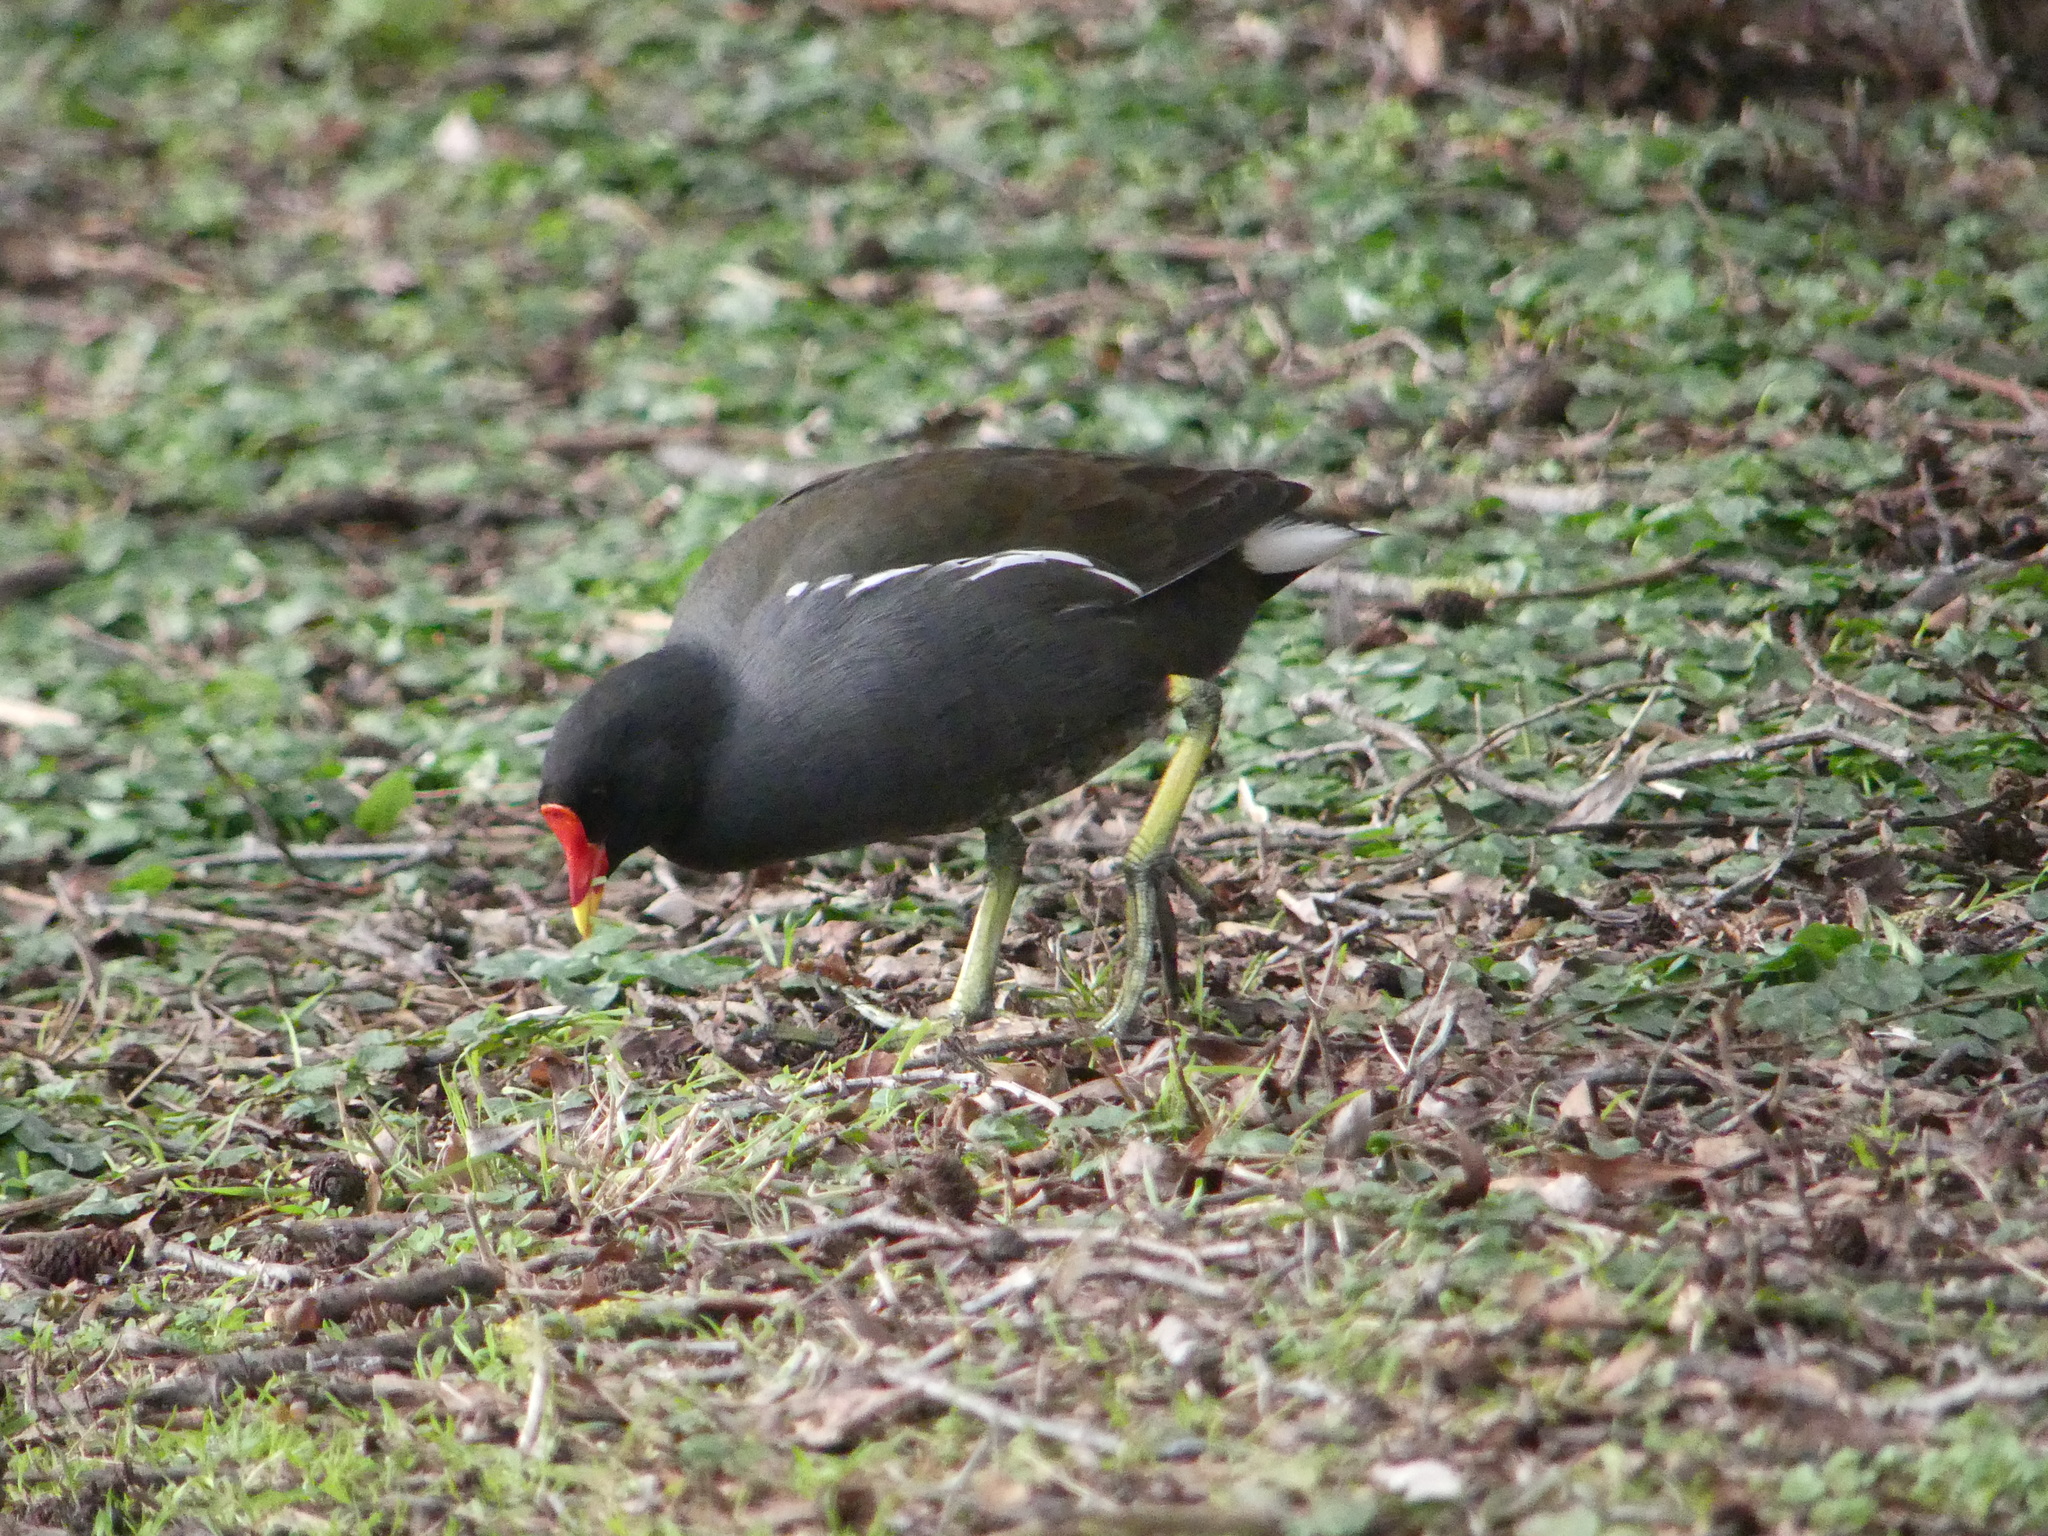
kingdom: Animalia
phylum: Chordata
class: Aves
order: Gruiformes
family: Rallidae
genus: Gallinula
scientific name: Gallinula chloropus
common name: Common moorhen
